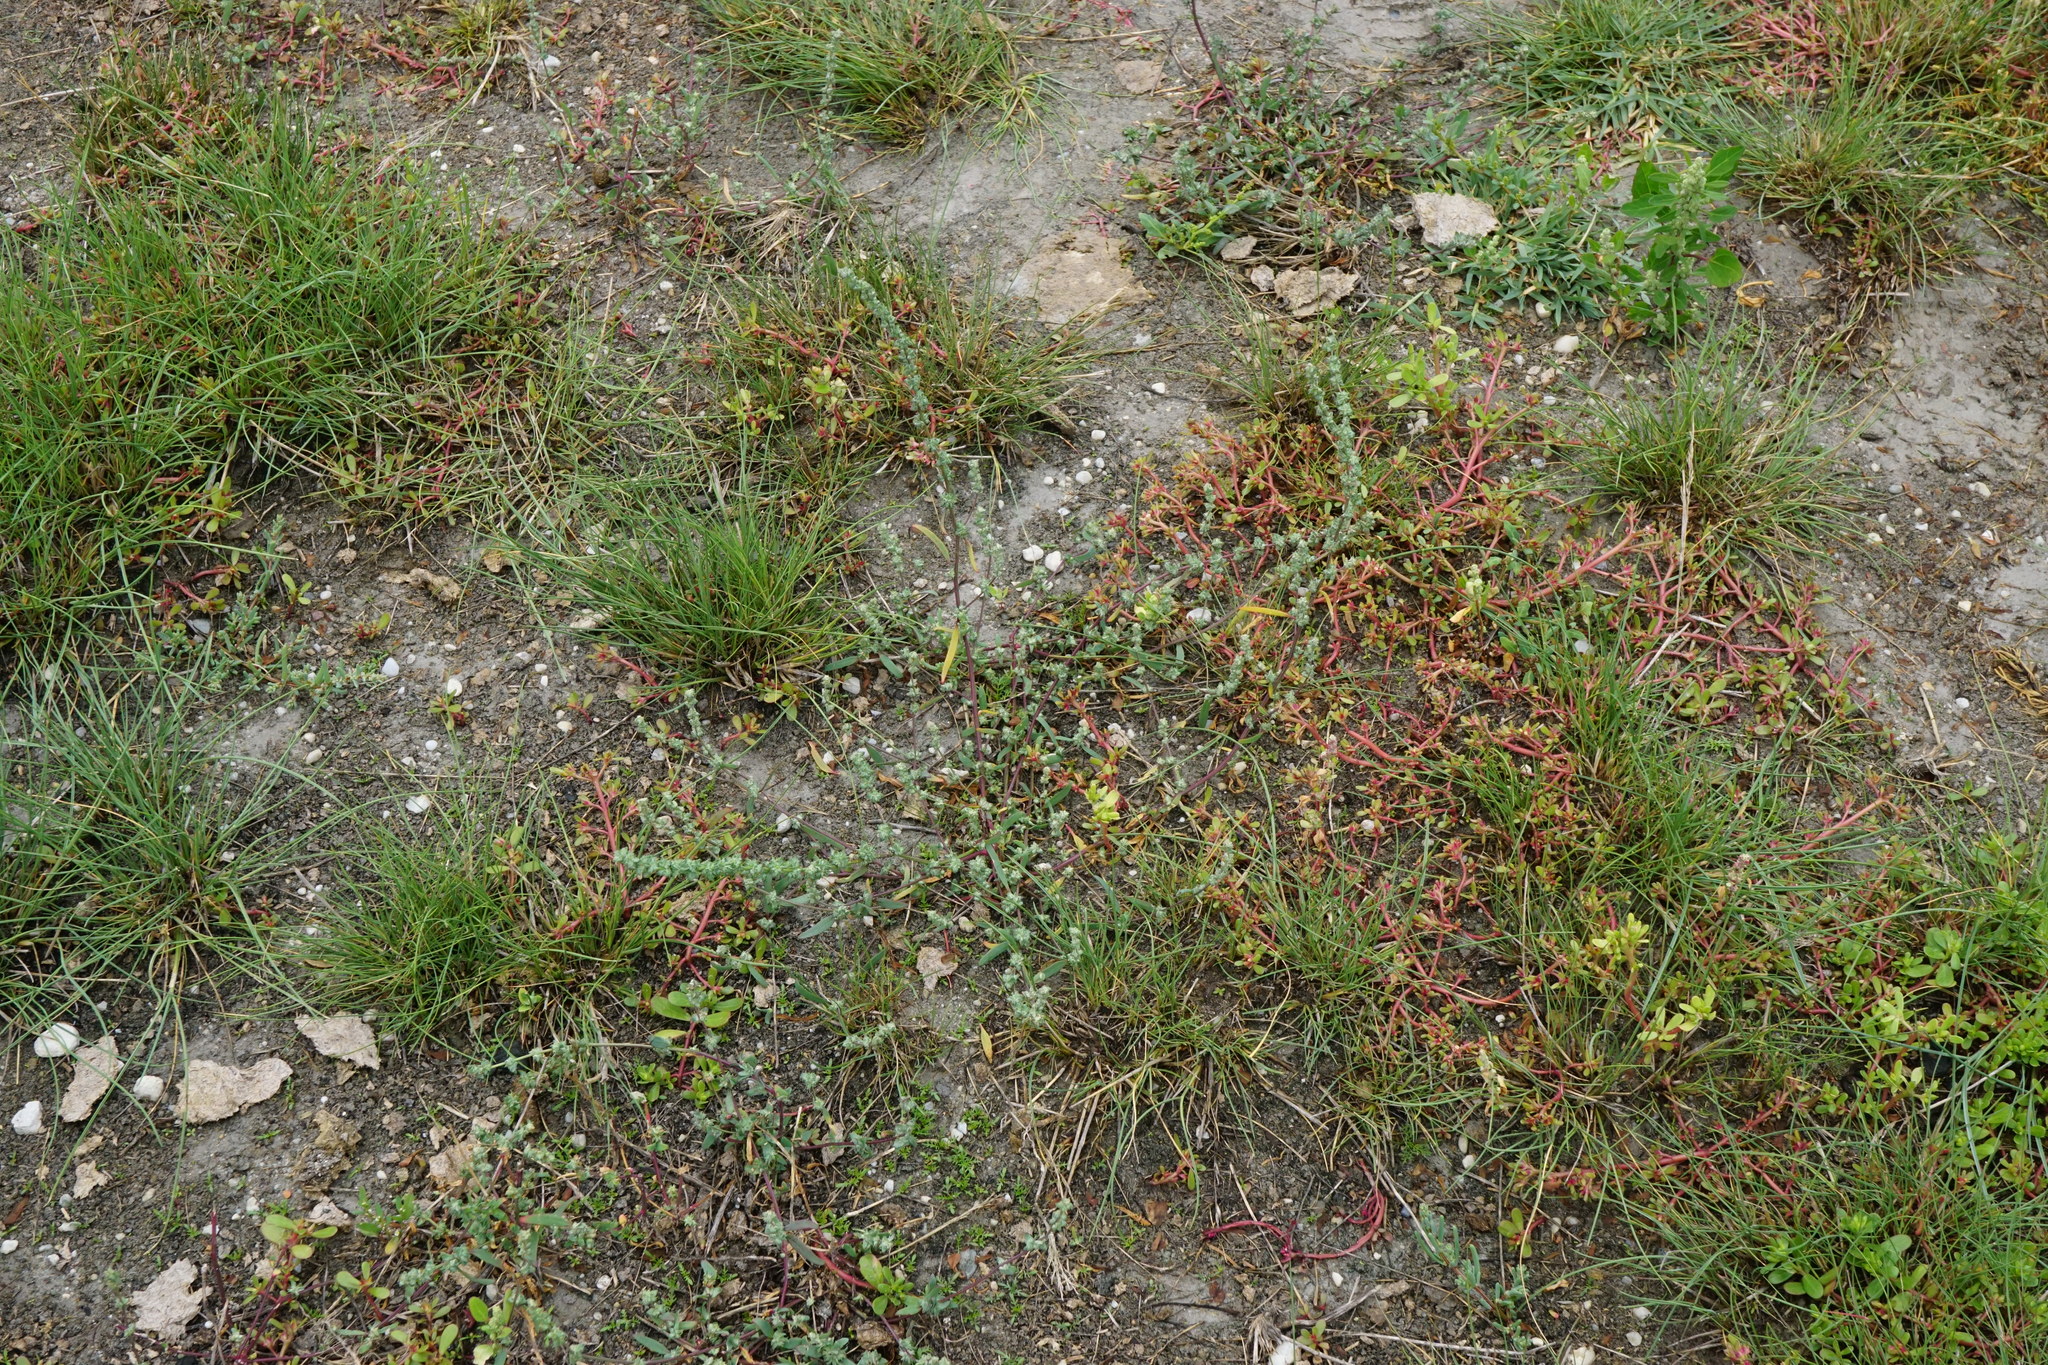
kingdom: Plantae
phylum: Tracheophyta
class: Magnoliopsida
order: Caryophyllales
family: Amaranthaceae
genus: Atriplex
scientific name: Atriplex intracontinentalis
